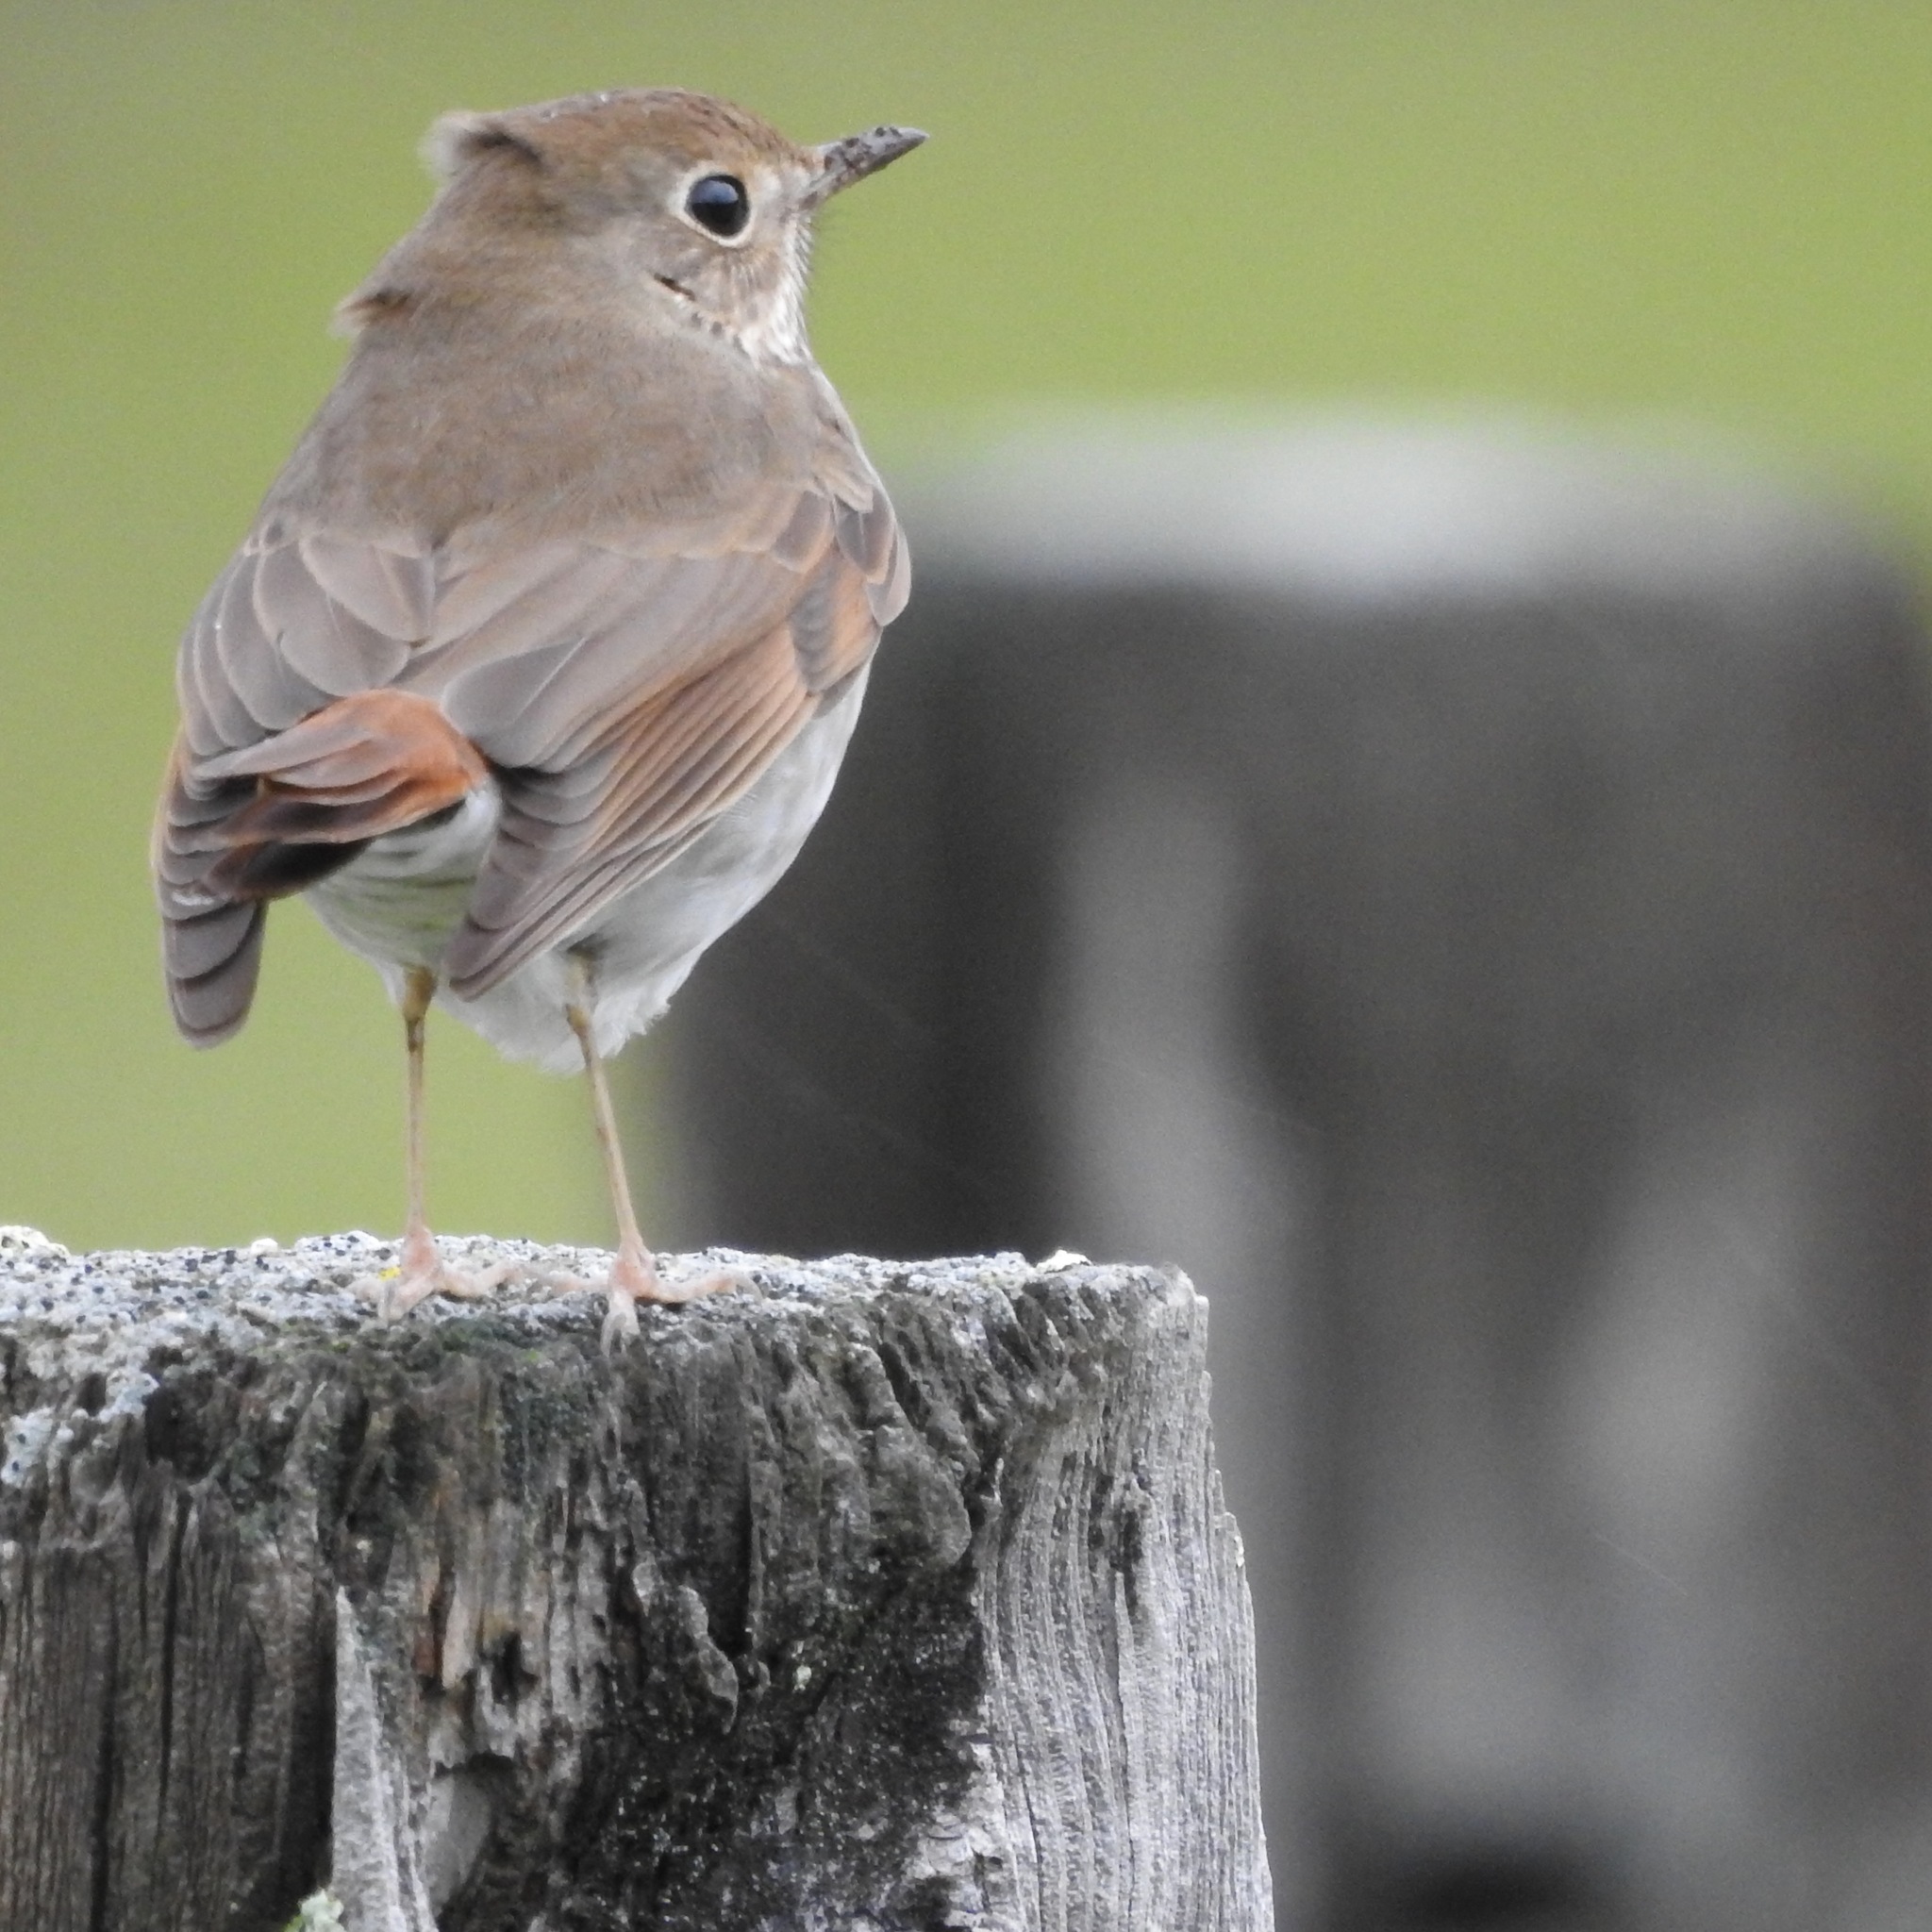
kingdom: Animalia
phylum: Chordata
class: Aves
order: Passeriformes
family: Turdidae
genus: Catharus
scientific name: Catharus guttatus
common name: Hermit thrush
